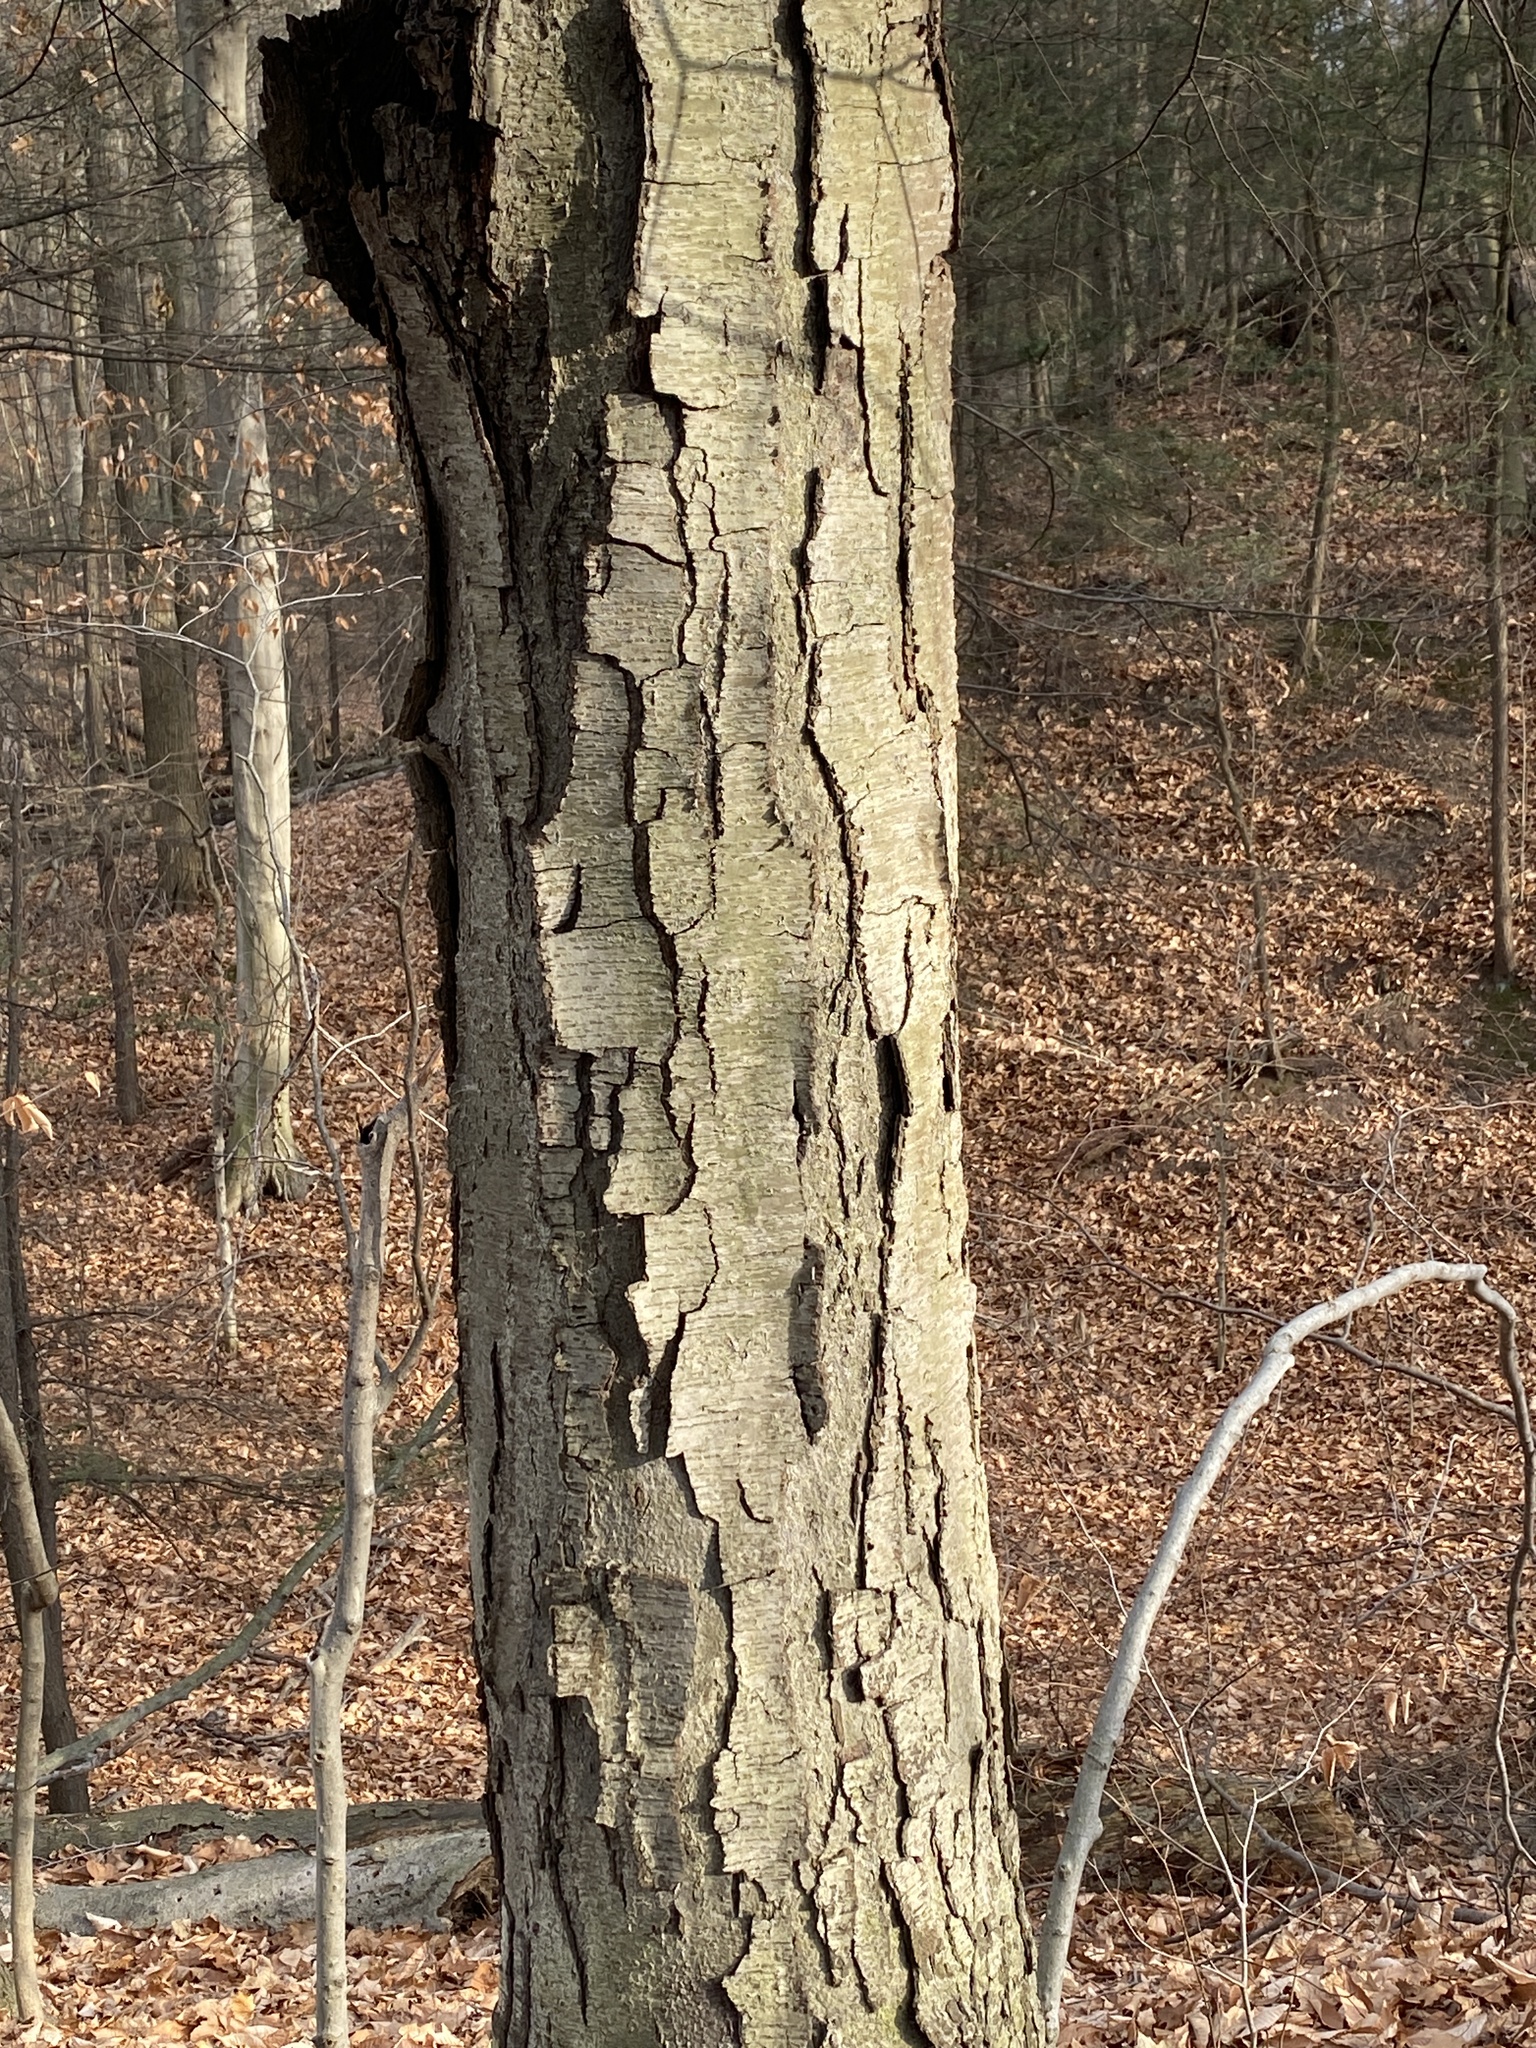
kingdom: Plantae
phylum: Tracheophyta
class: Magnoliopsida
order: Fagales
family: Betulaceae
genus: Betula
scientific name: Betula lenta
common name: Black birch
